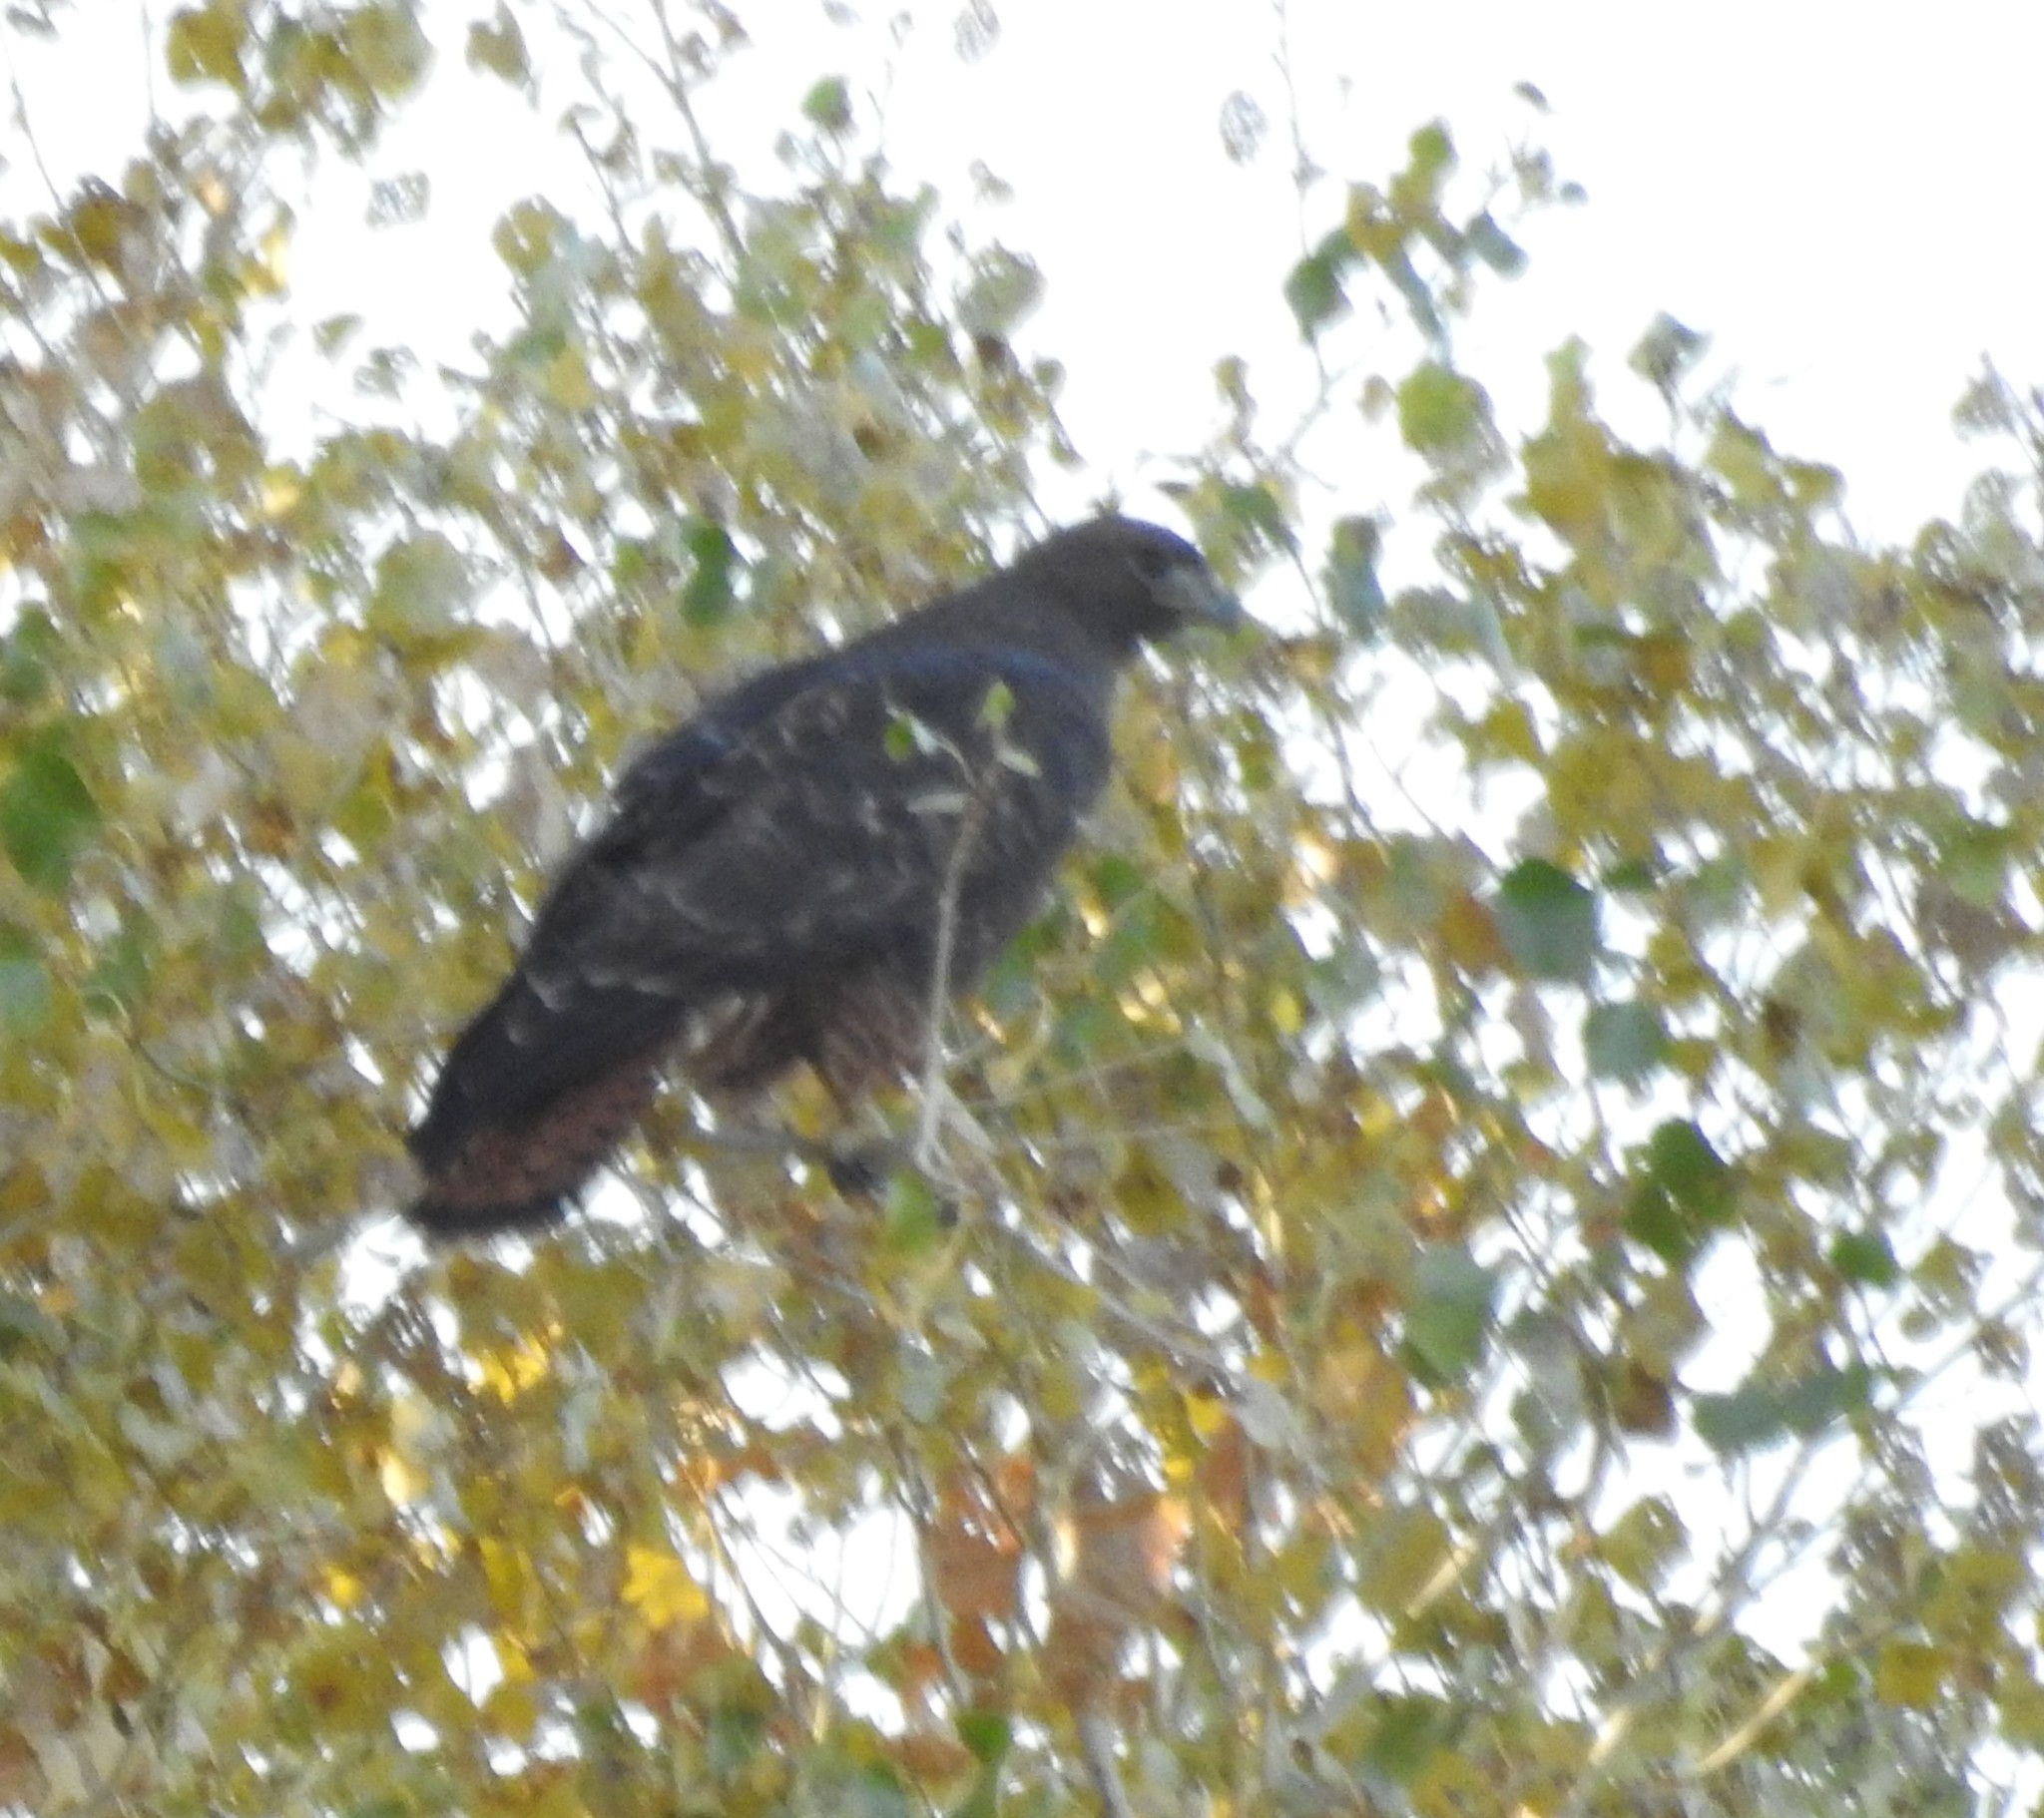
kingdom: Animalia
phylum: Chordata
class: Aves
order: Accipitriformes
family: Accipitridae
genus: Buteo
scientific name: Buteo jamaicensis
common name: Red-tailed hawk
